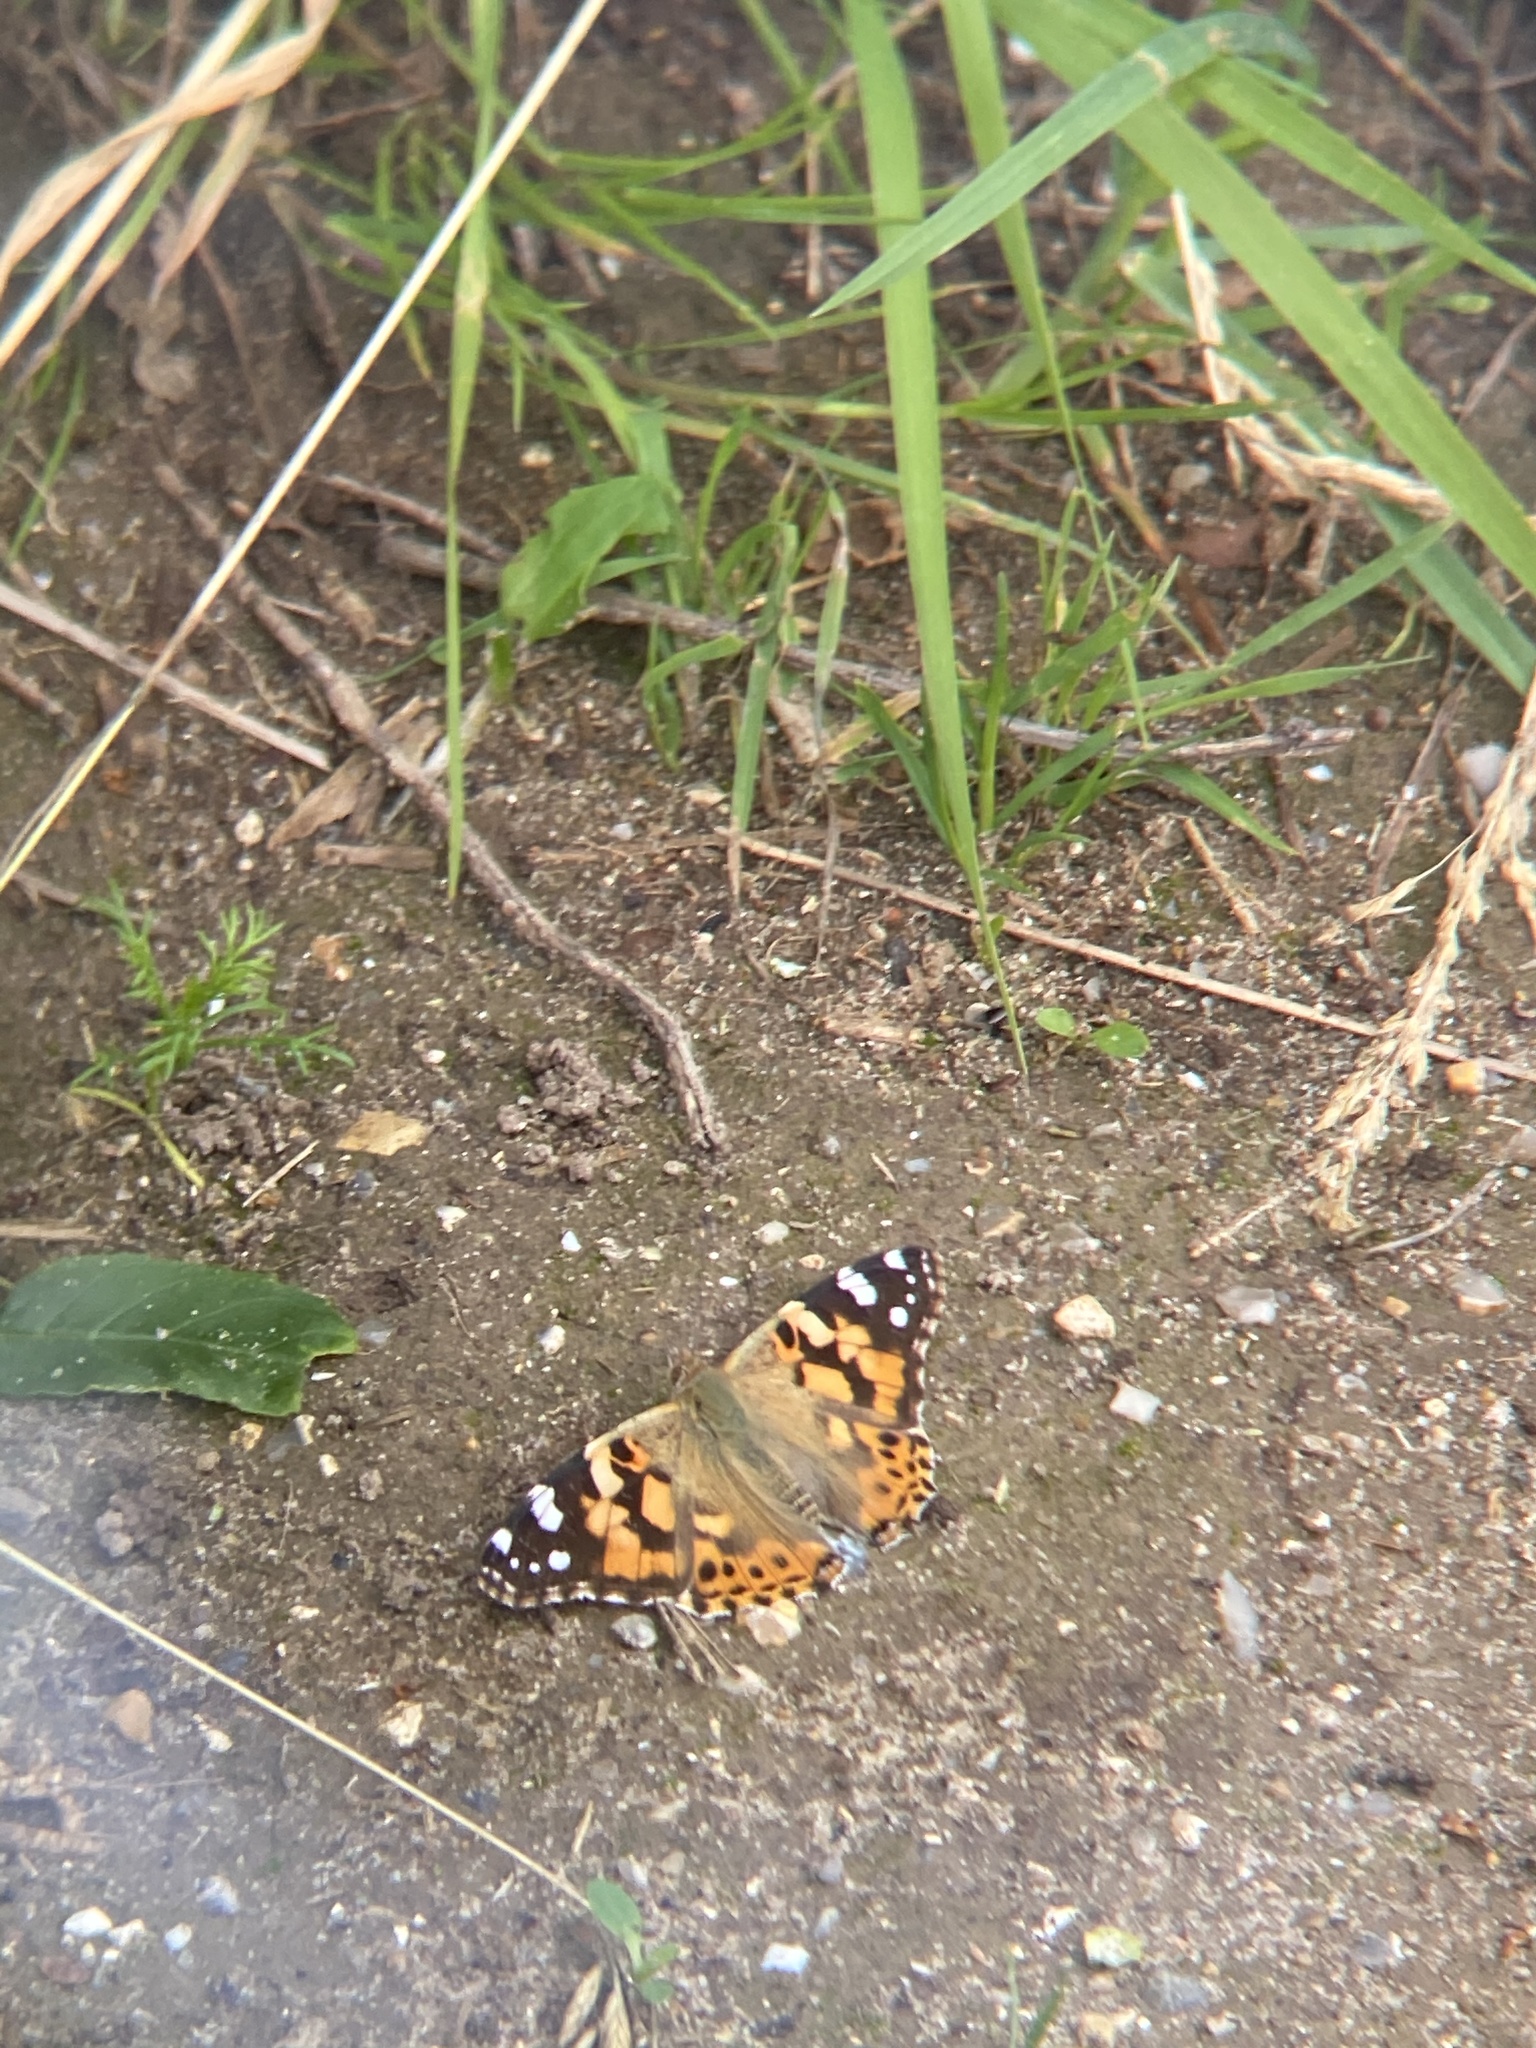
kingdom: Animalia
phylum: Arthropoda
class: Insecta
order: Lepidoptera
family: Nymphalidae
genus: Vanessa
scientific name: Vanessa cardui
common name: Painted lady
